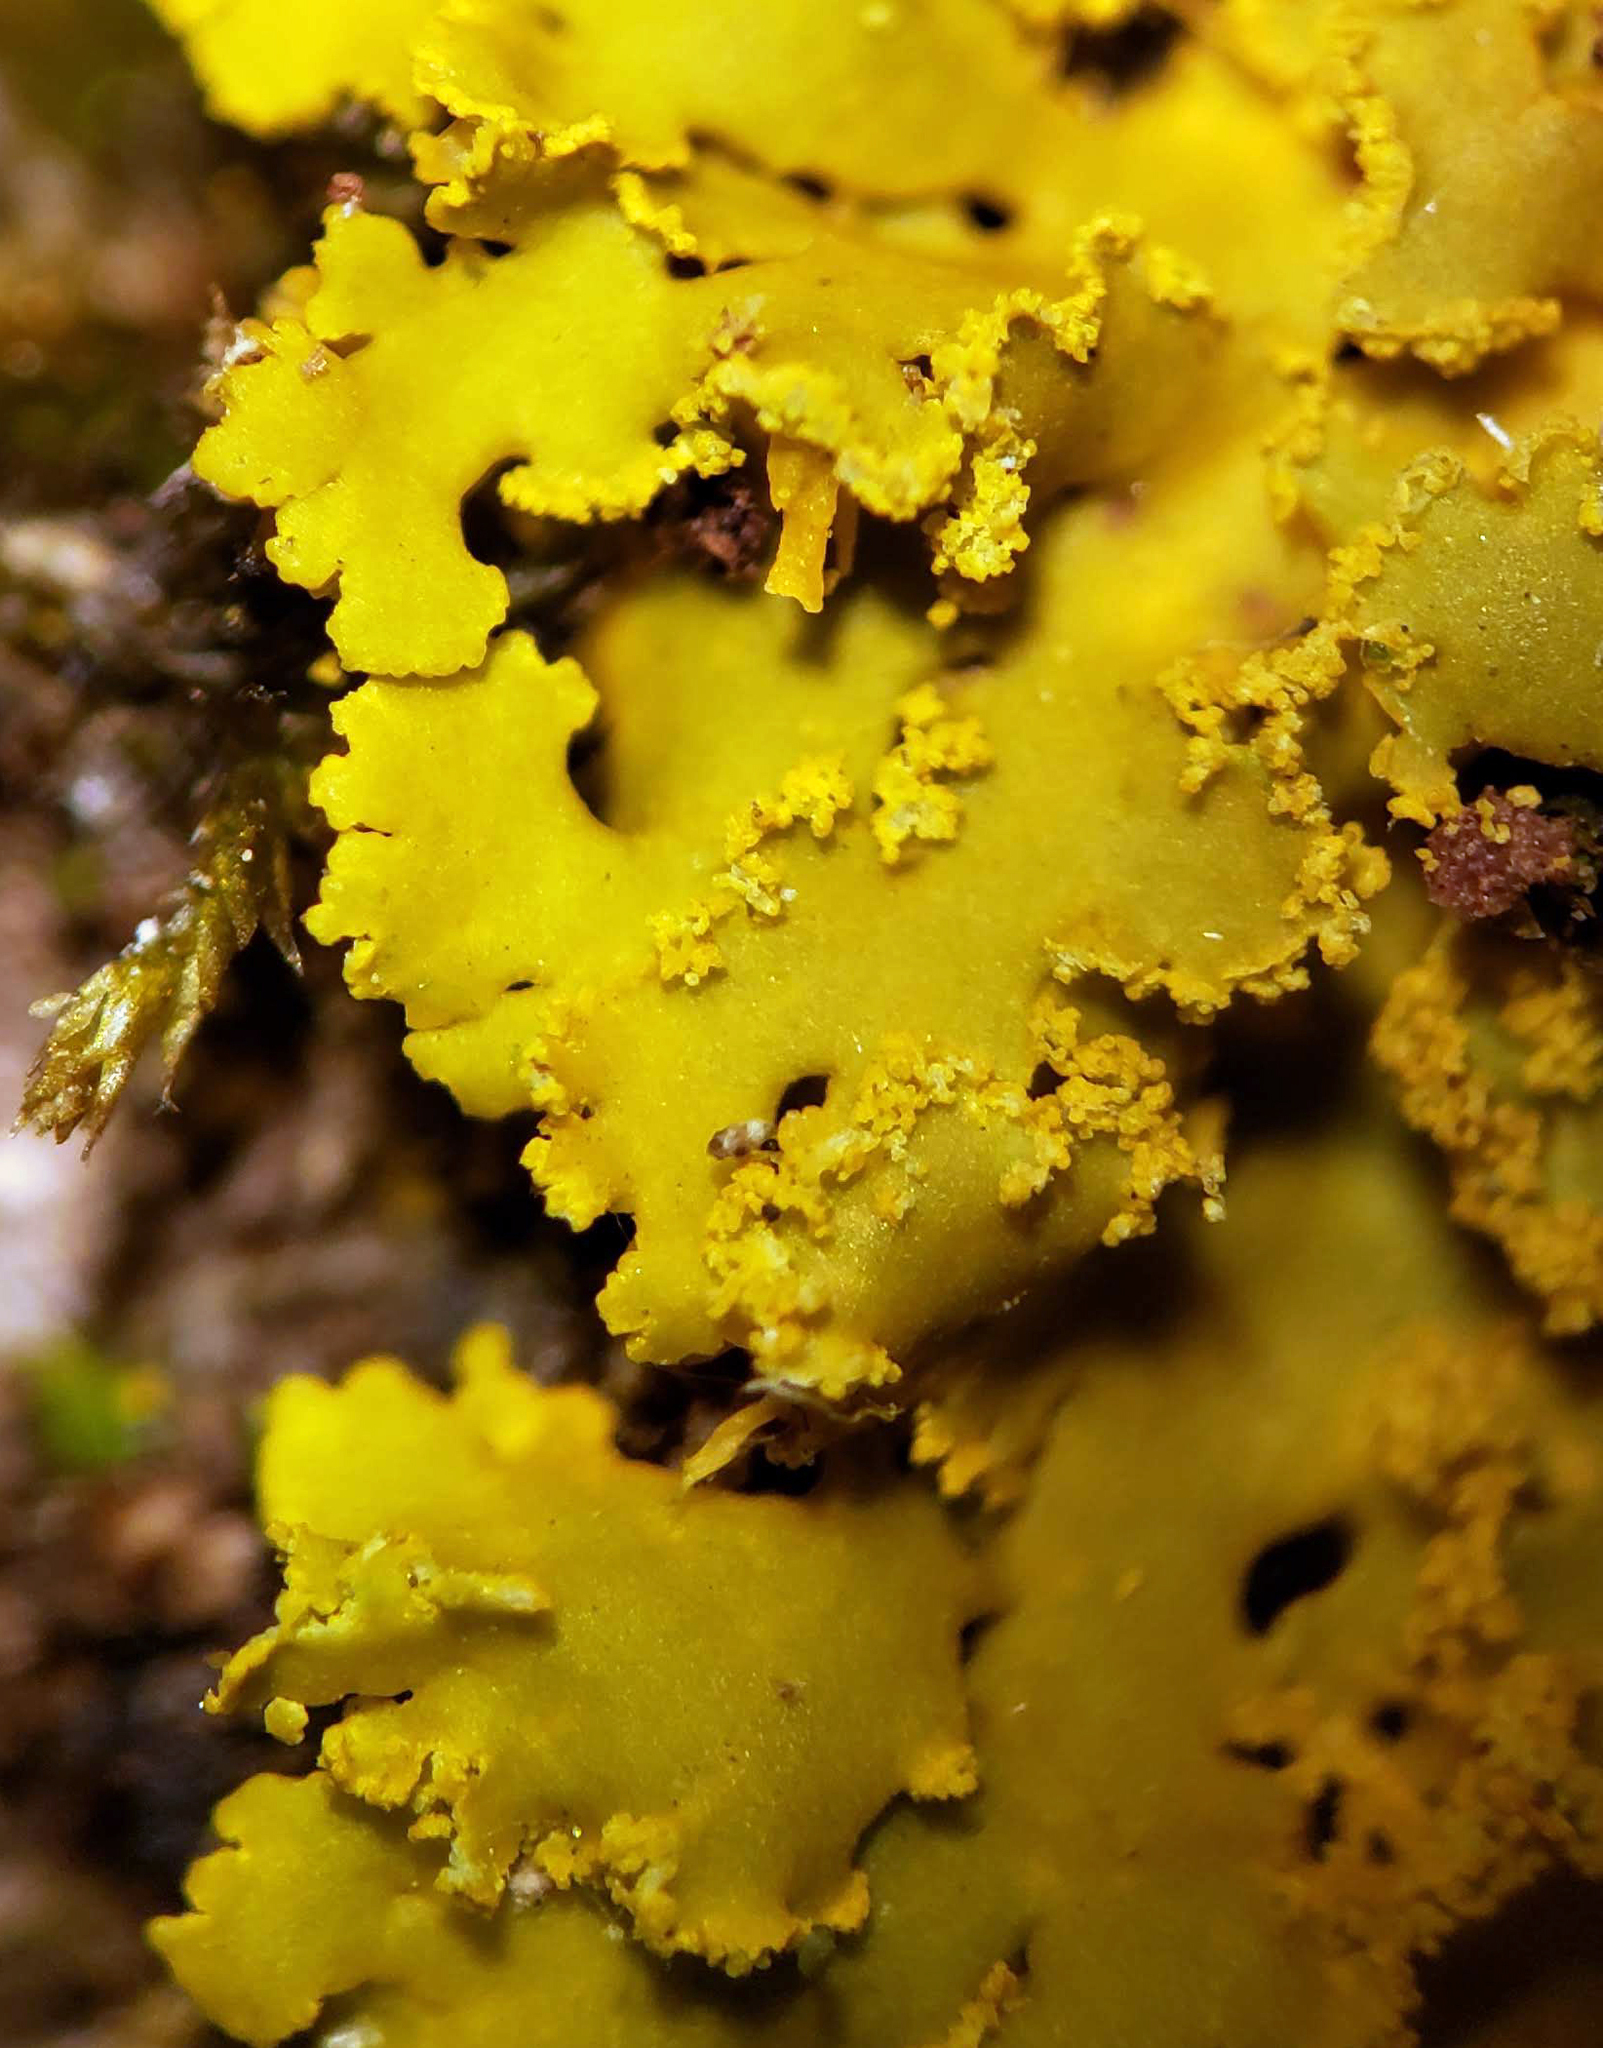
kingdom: Fungi
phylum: Ascomycota
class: Lecanoromycetes
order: Teloschistales
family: Teloschistaceae
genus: Xanthoria
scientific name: Xanthoria ulophyllodes
